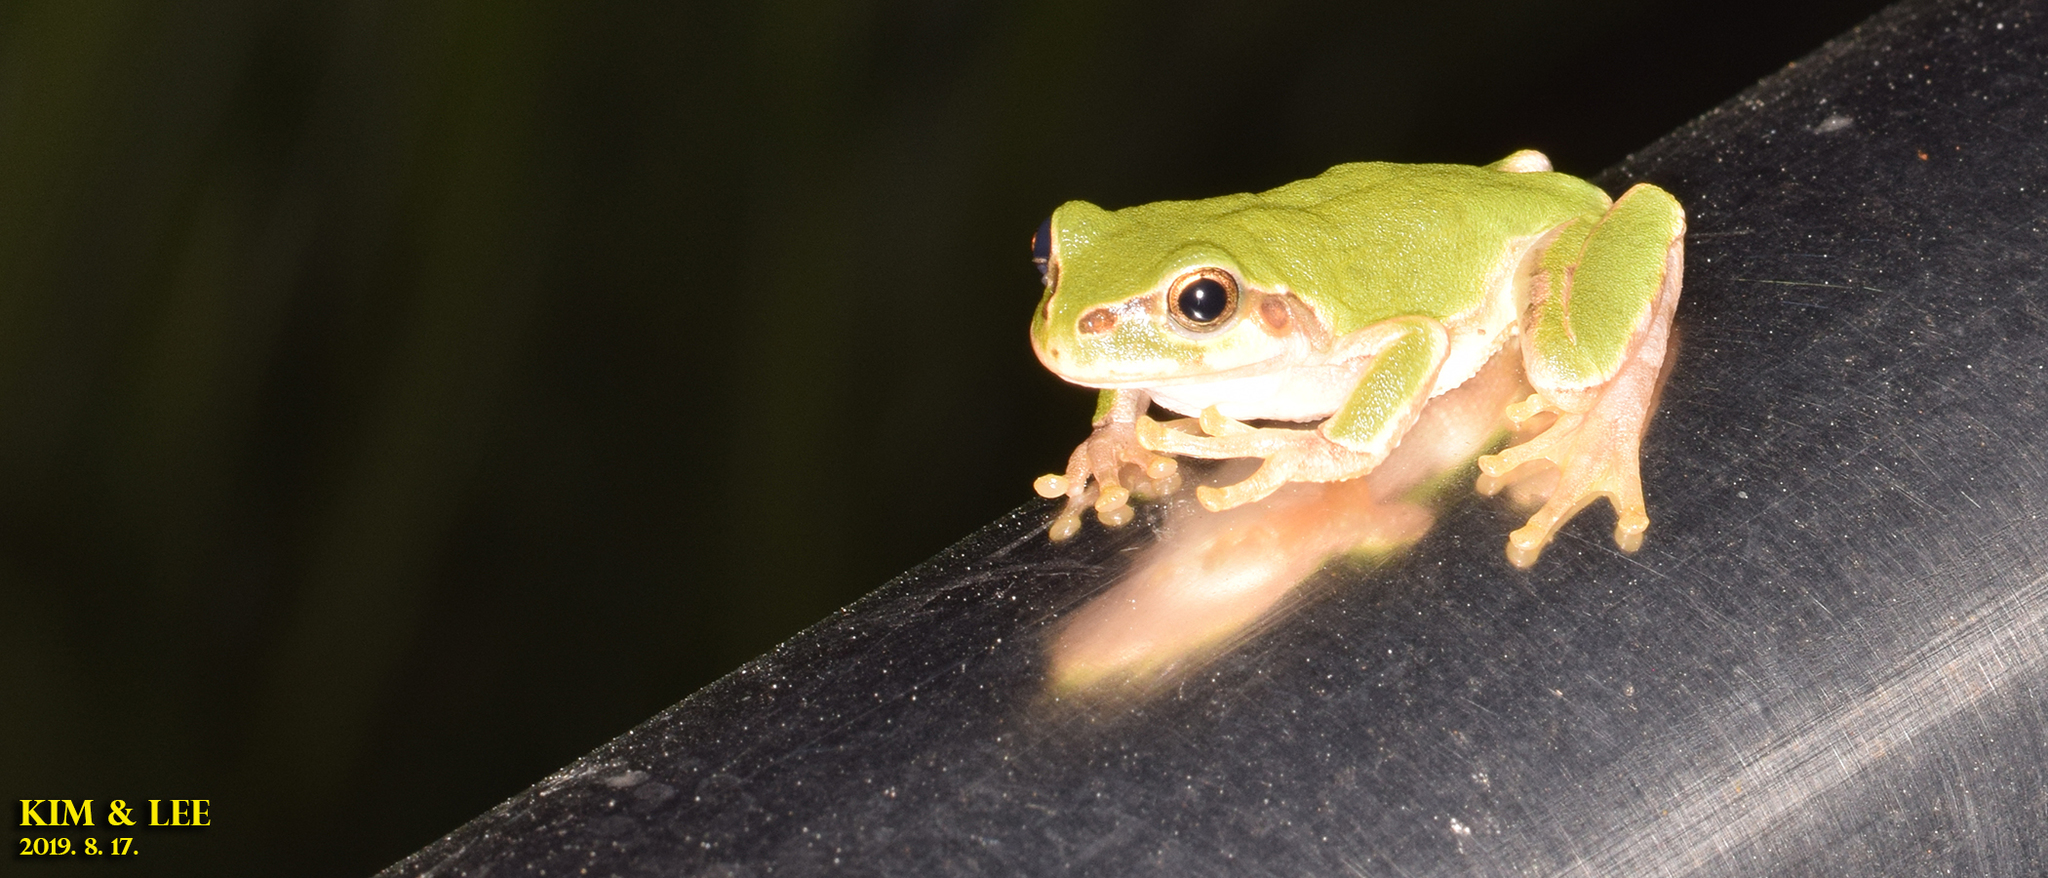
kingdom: Animalia
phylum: Chordata
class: Amphibia
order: Anura
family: Hylidae
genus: Dryophytes
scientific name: Dryophytes japonicus
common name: Japanese treefrog
